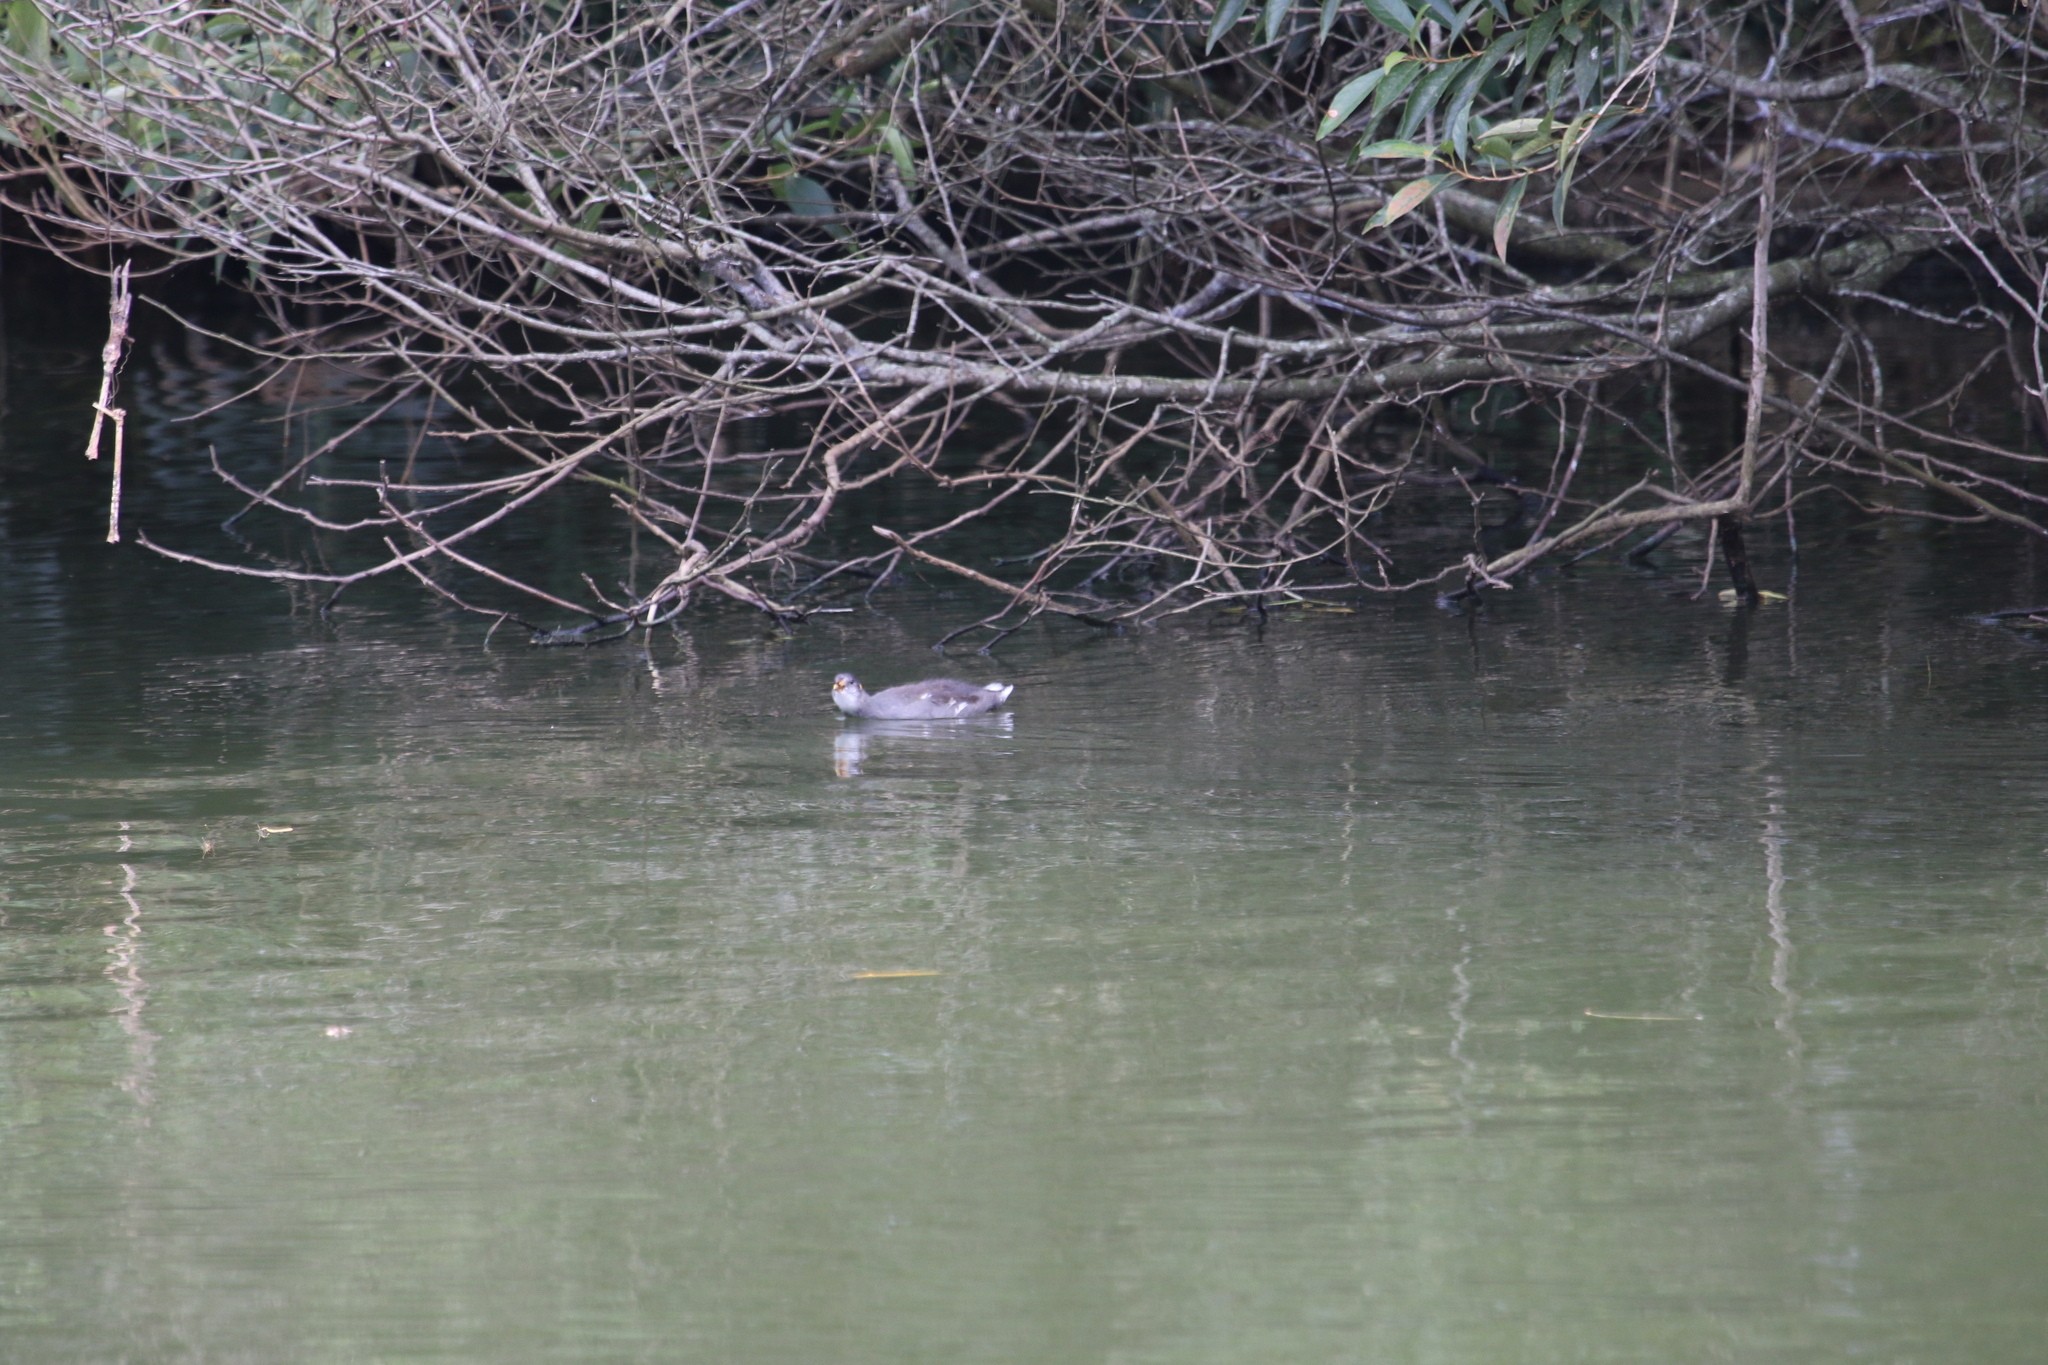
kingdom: Animalia
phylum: Chordata
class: Aves
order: Gruiformes
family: Rallidae
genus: Gallinula
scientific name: Gallinula chloropus
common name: Common moorhen
